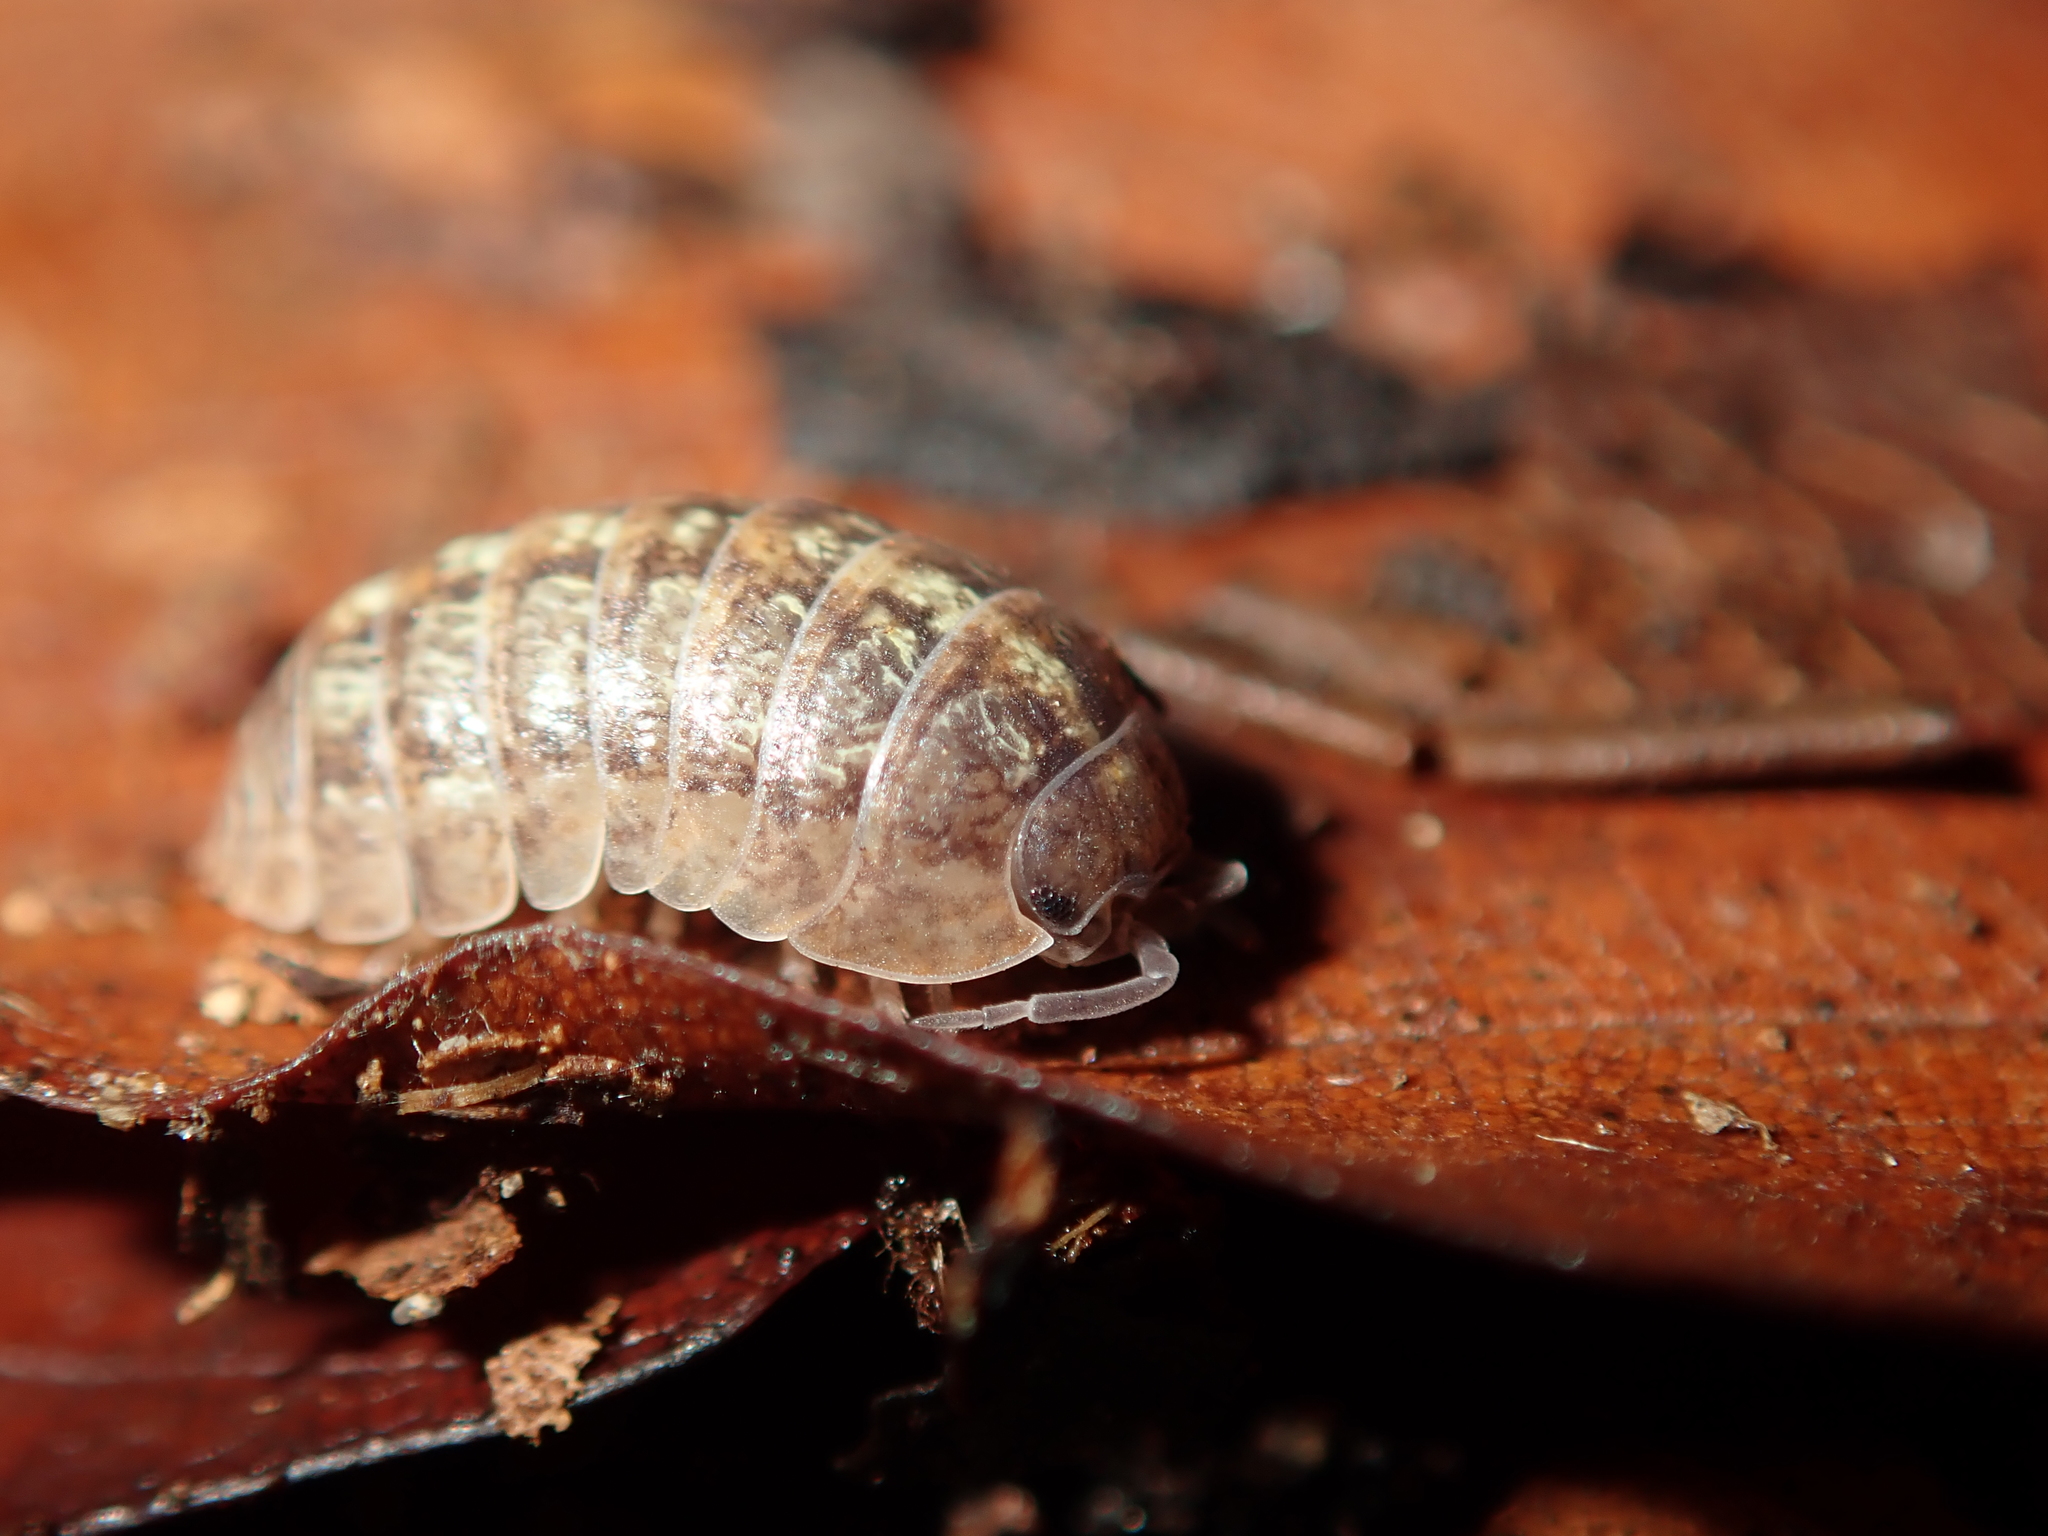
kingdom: Animalia
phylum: Arthropoda
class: Malacostraca
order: Isopoda
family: Armadillidiidae
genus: Armadillidium
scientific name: Armadillidium vulgare
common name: Common pill woodlouse
